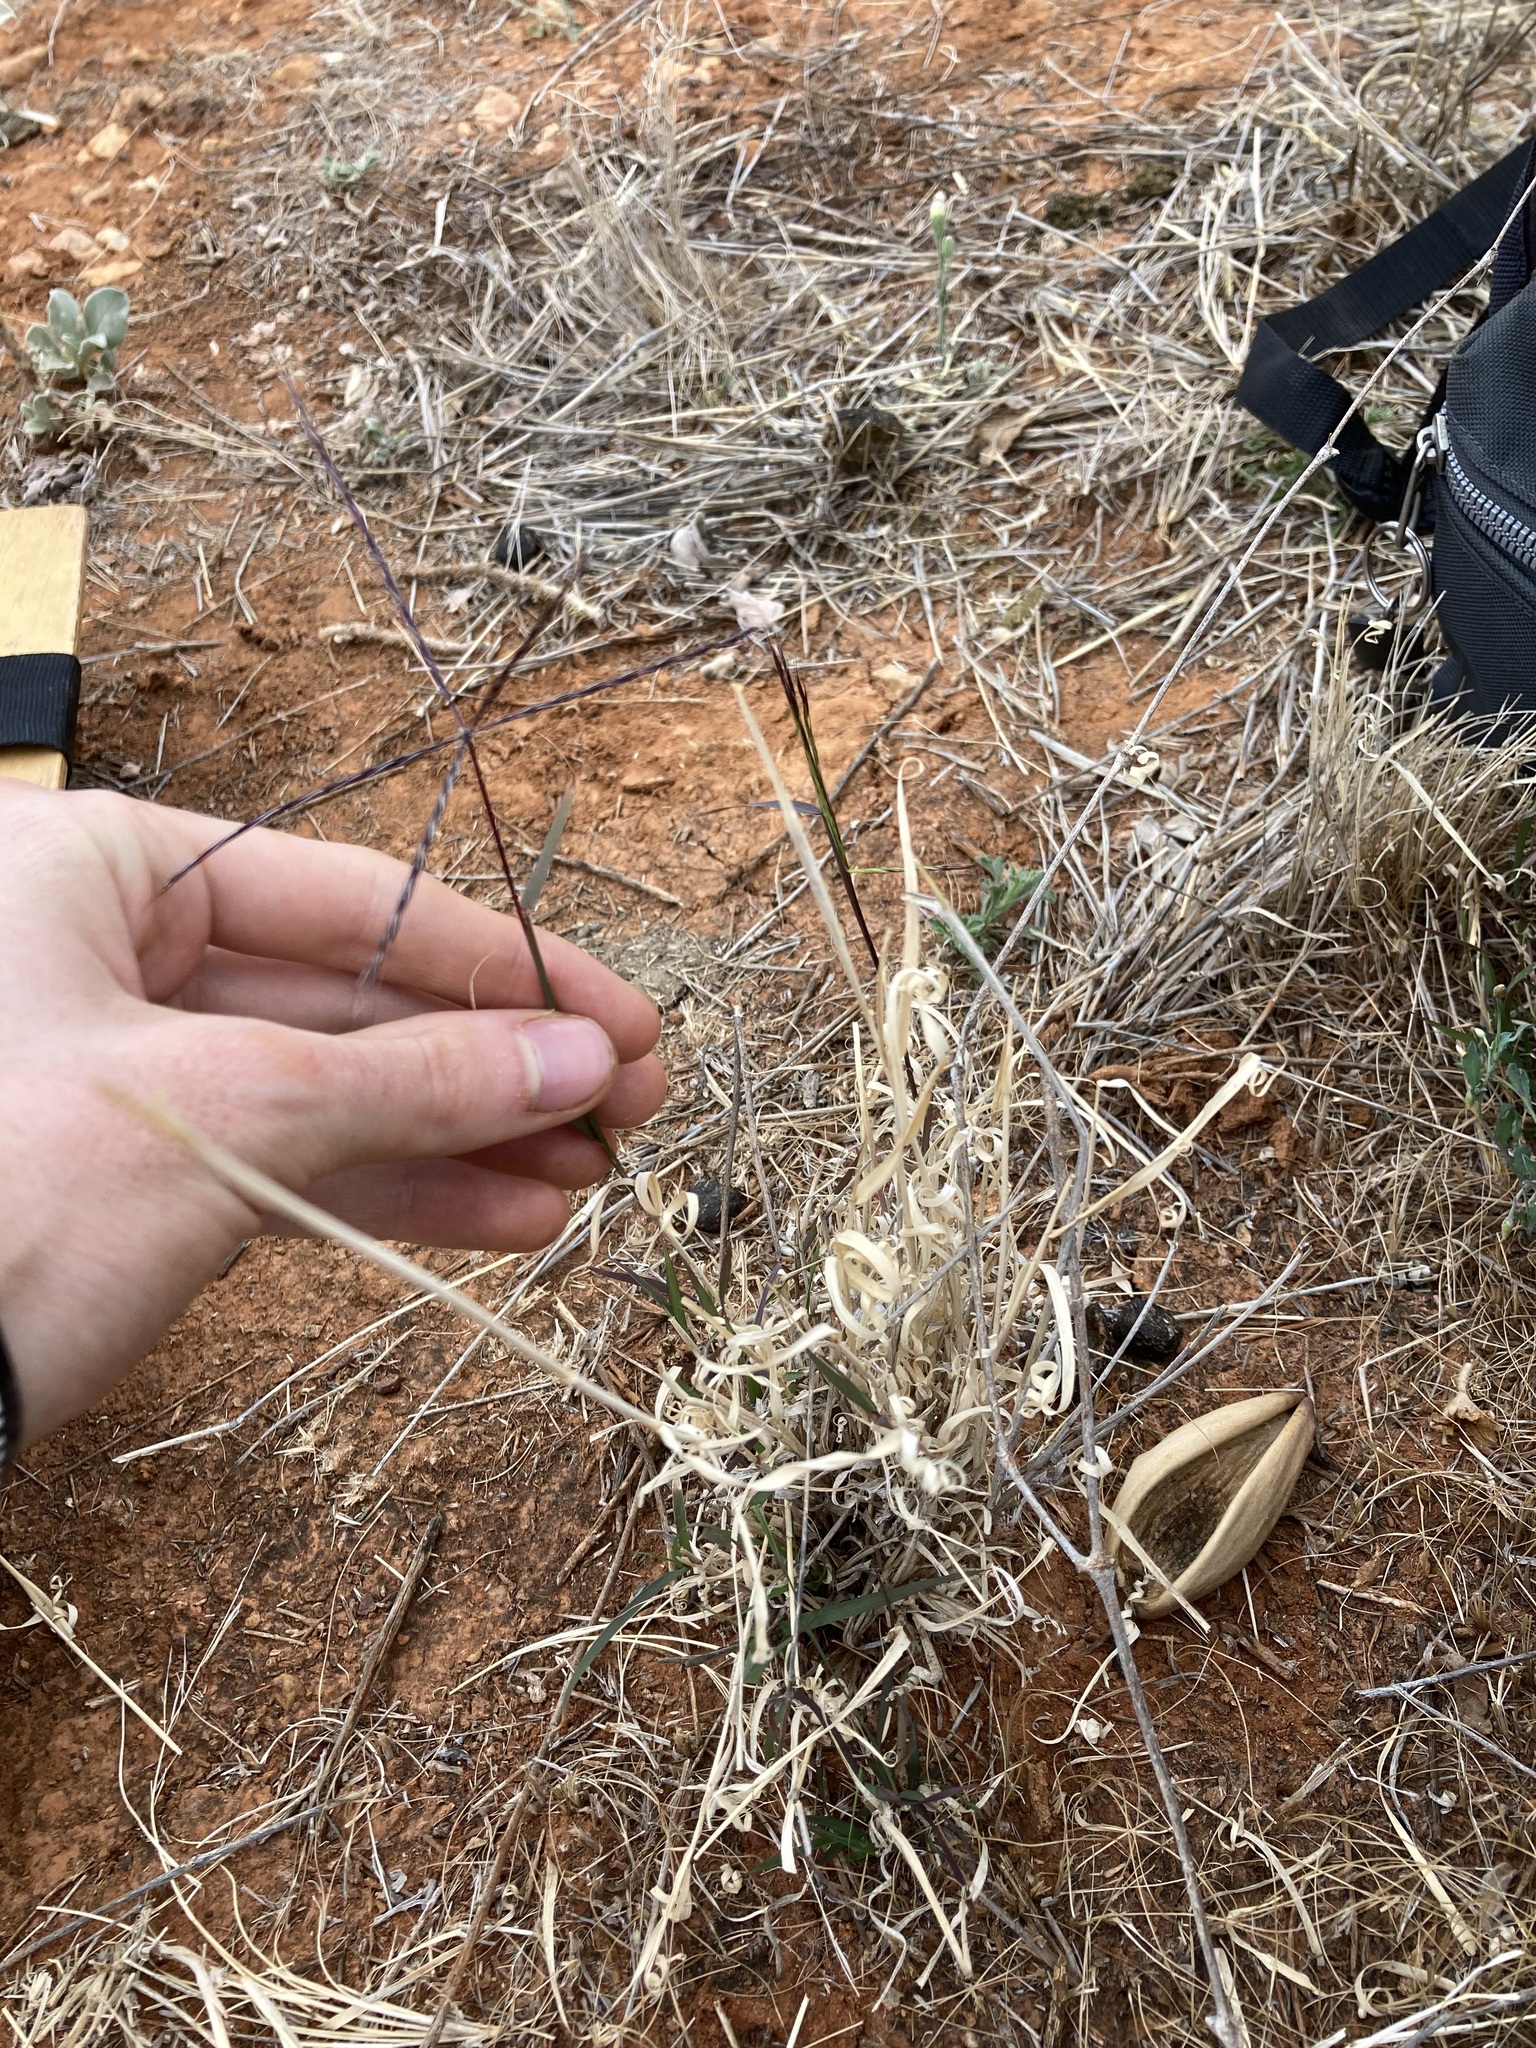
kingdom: Plantae
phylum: Tracheophyta
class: Liliopsida
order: Poales
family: Poaceae
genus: Enteropogon
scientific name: Enteropogon ramosus
